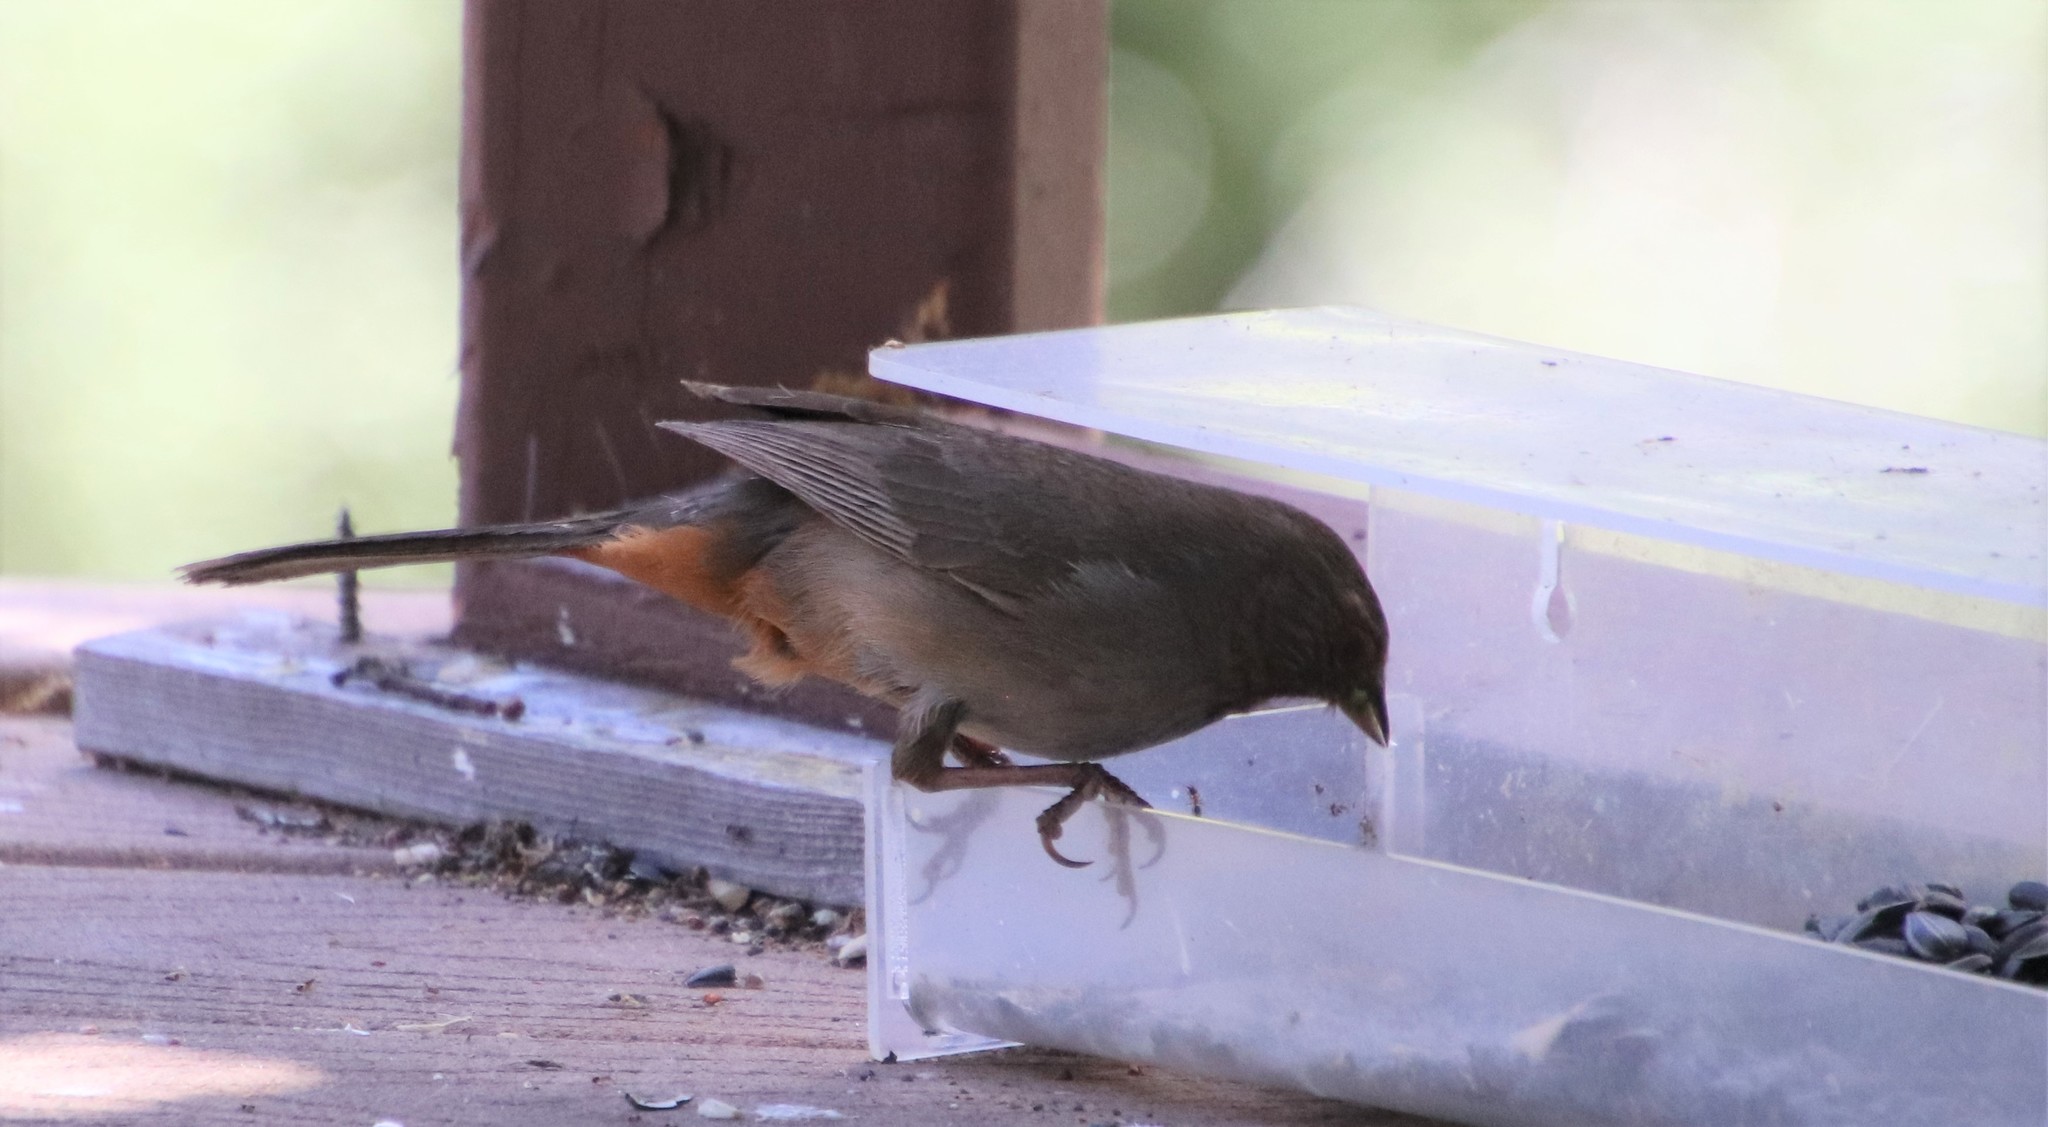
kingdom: Animalia
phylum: Chordata
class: Aves
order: Passeriformes
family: Passerellidae
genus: Melozone
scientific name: Melozone crissalis
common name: California towhee
